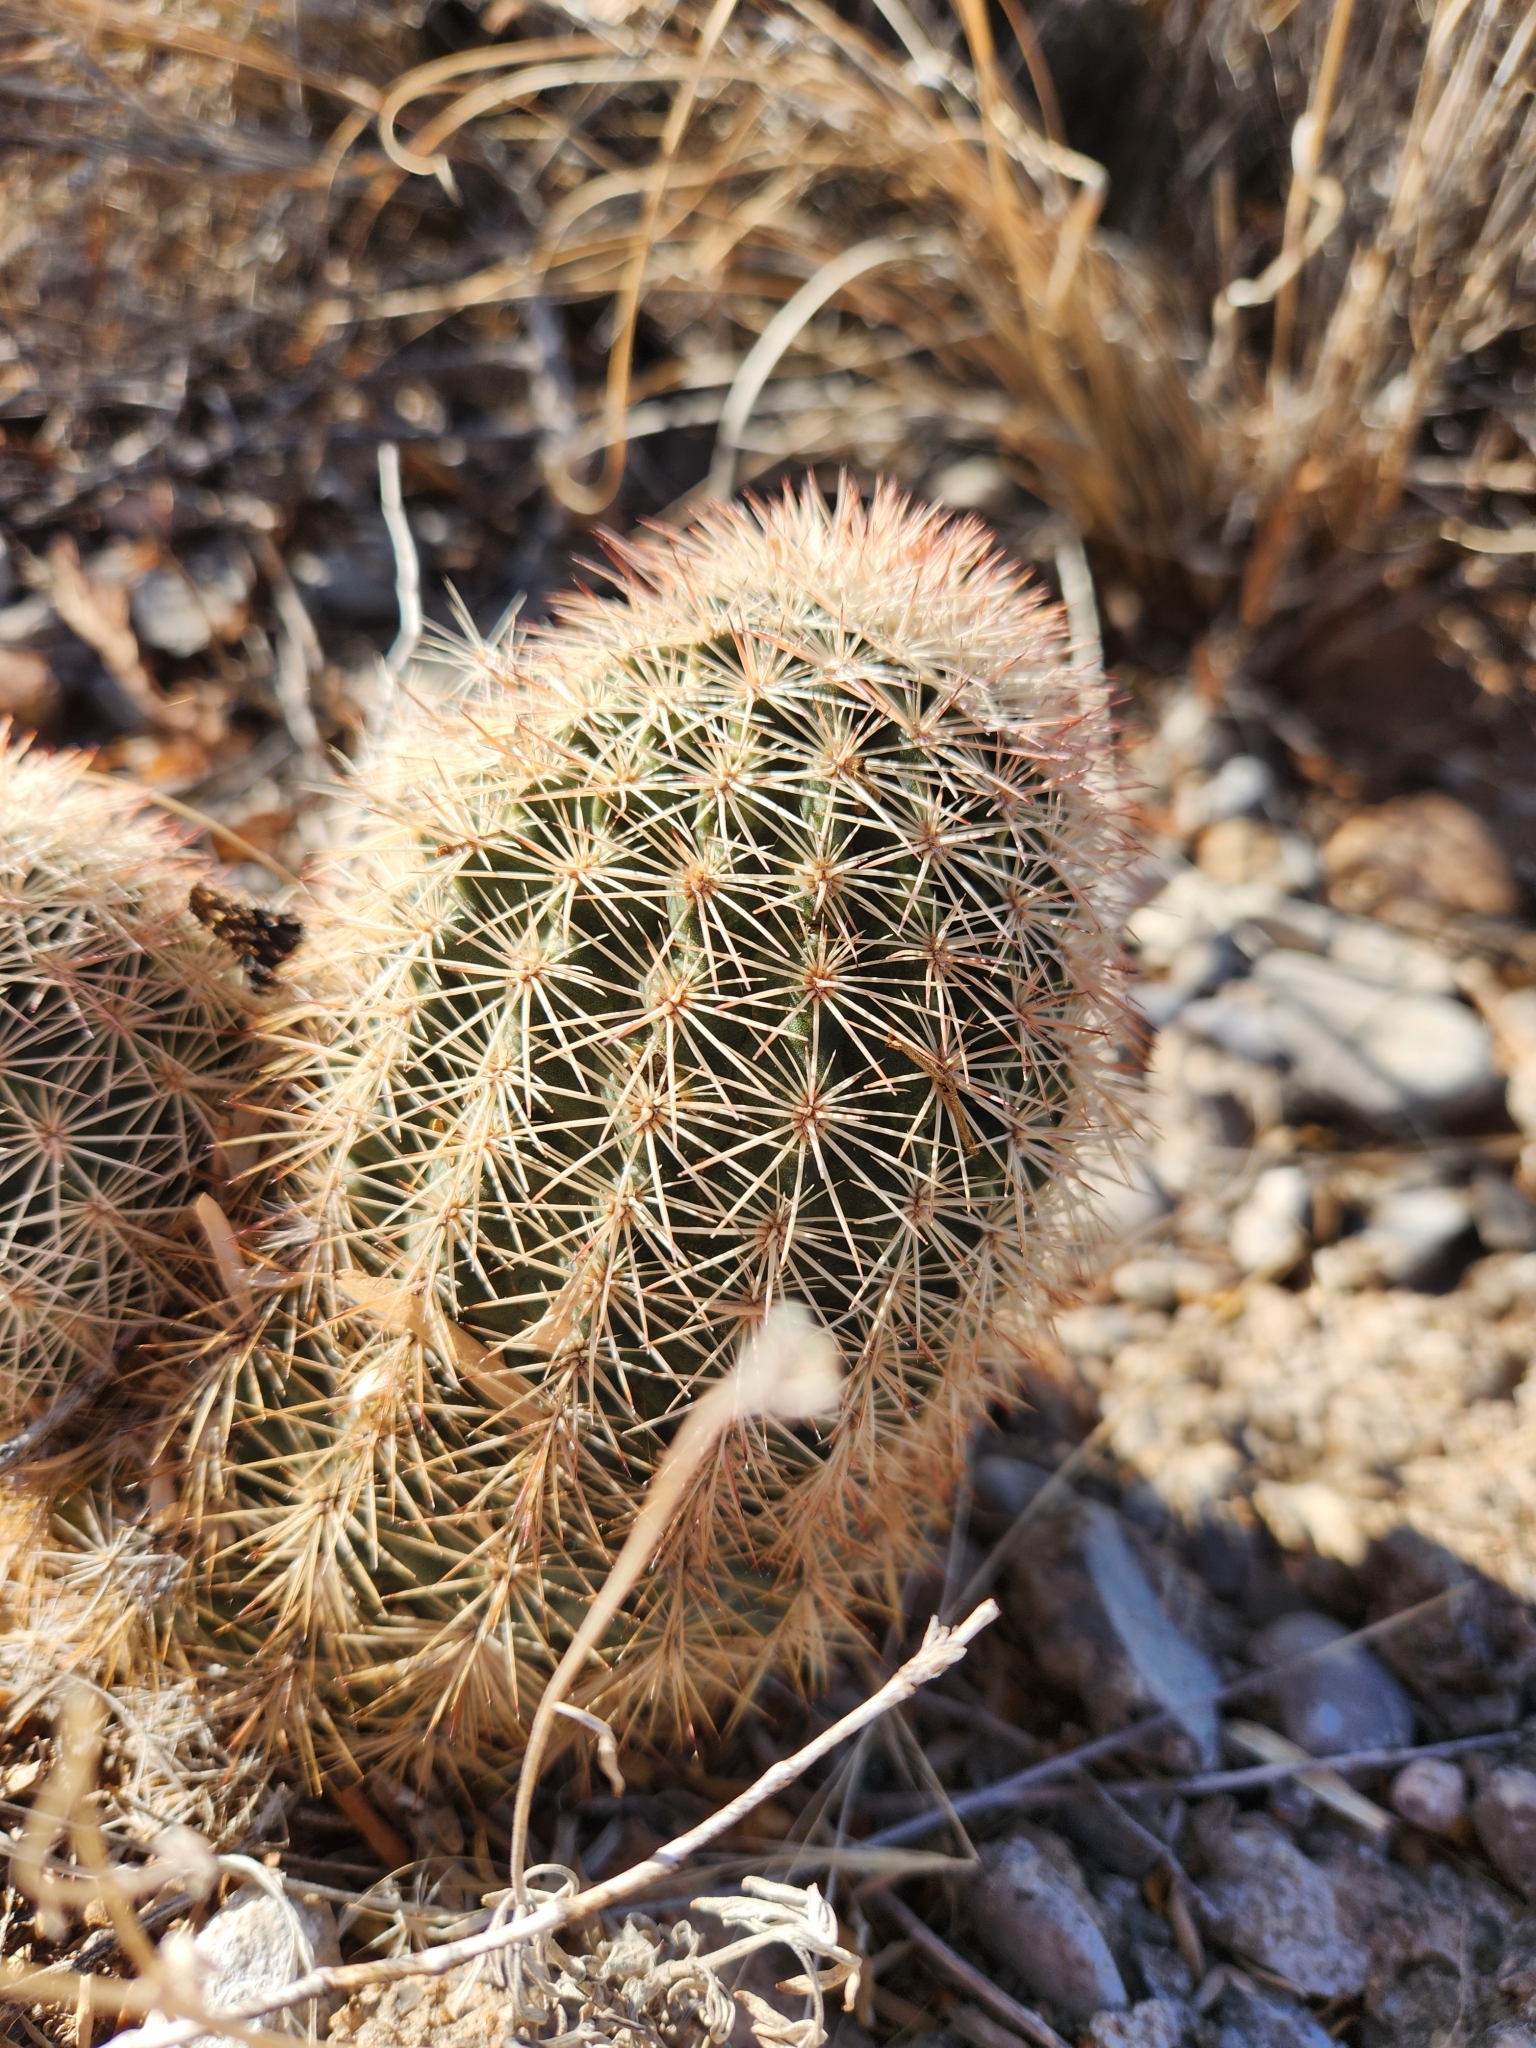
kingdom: Plantae
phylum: Tracheophyta
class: Magnoliopsida
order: Caryophyllales
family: Cactaceae
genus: Echinocereus
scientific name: Echinocereus dasyacanthus
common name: Spiny hedgehog cactus
